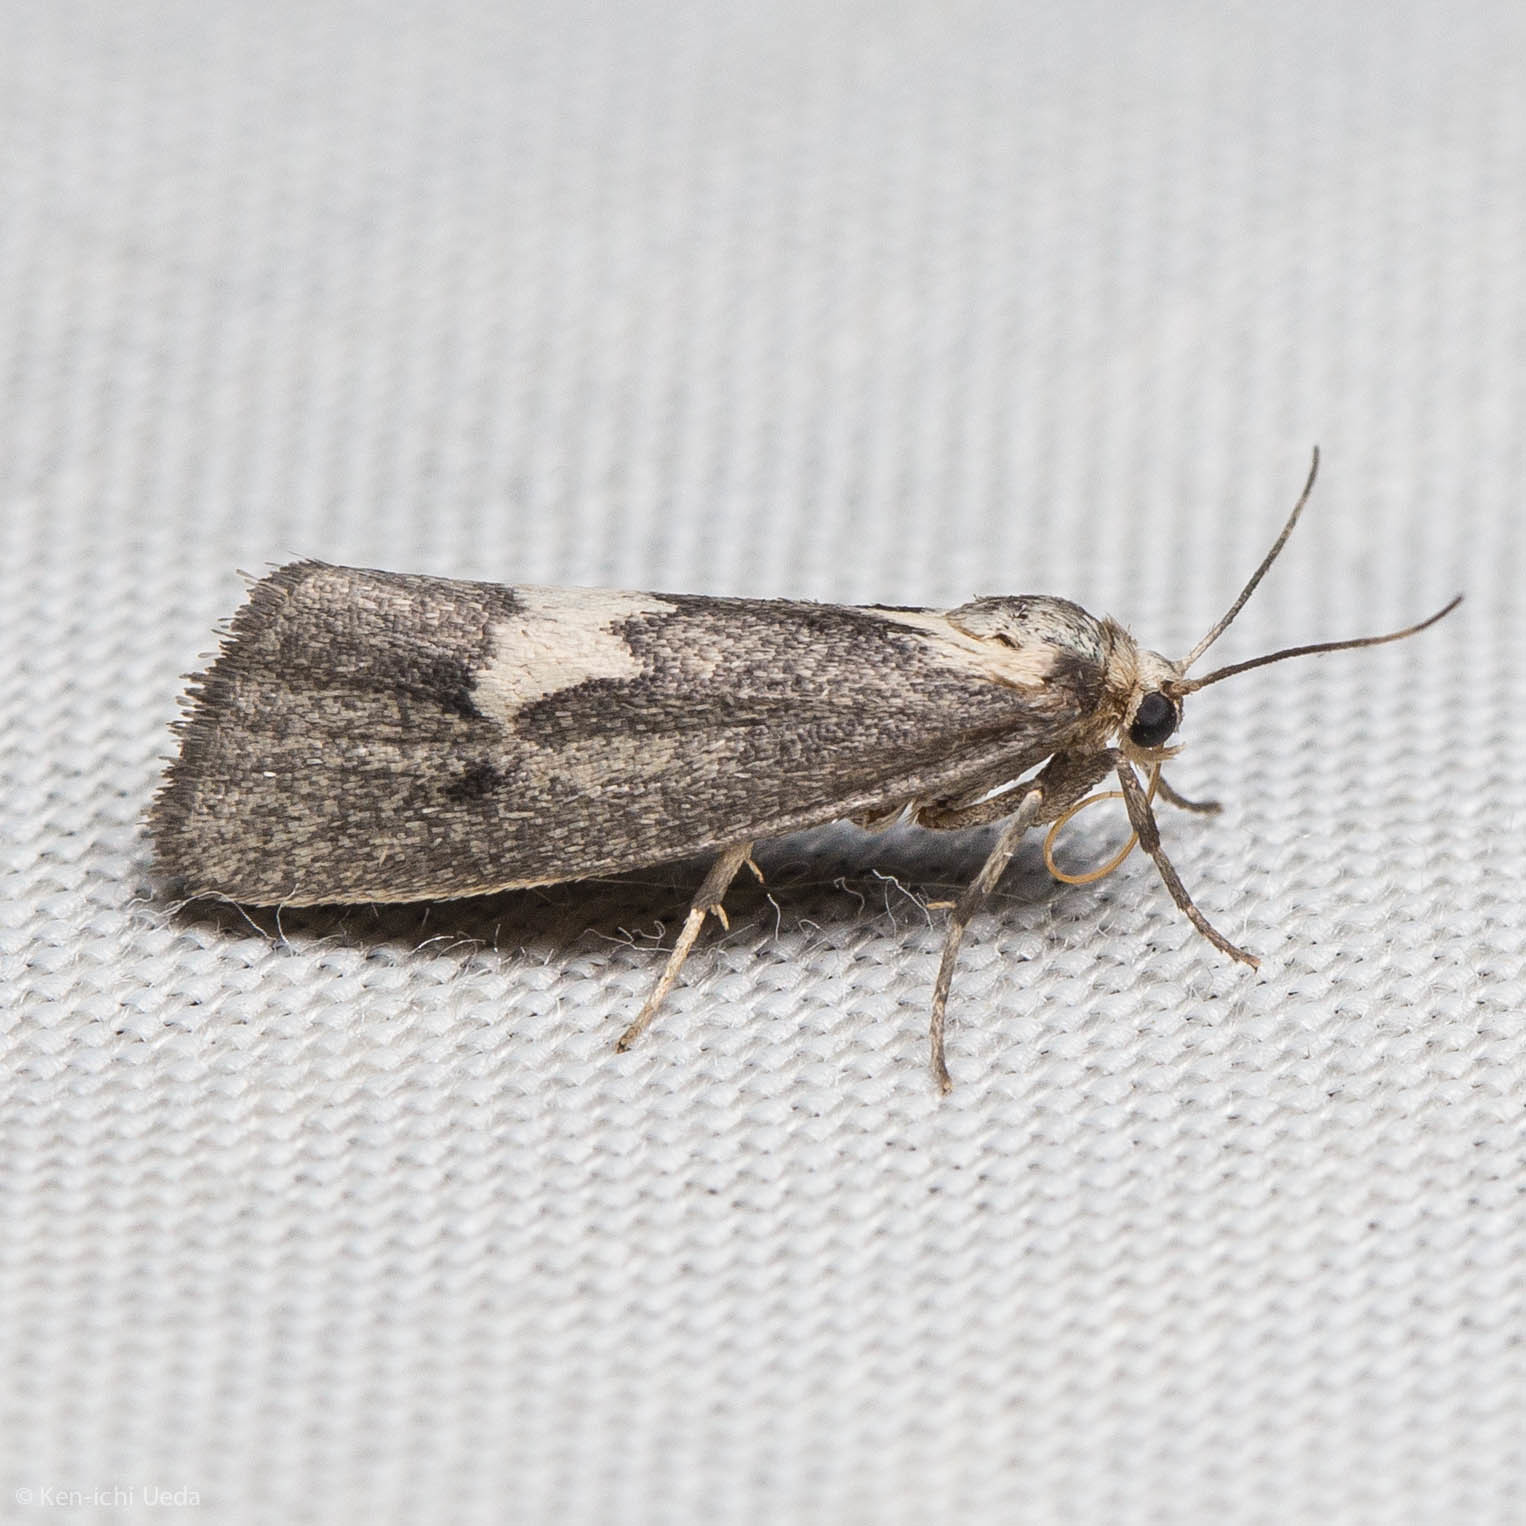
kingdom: Animalia
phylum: Arthropoda
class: Insecta
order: Lepidoptera
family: Erebidae
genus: Cisthene
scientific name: Cisthene deserta
